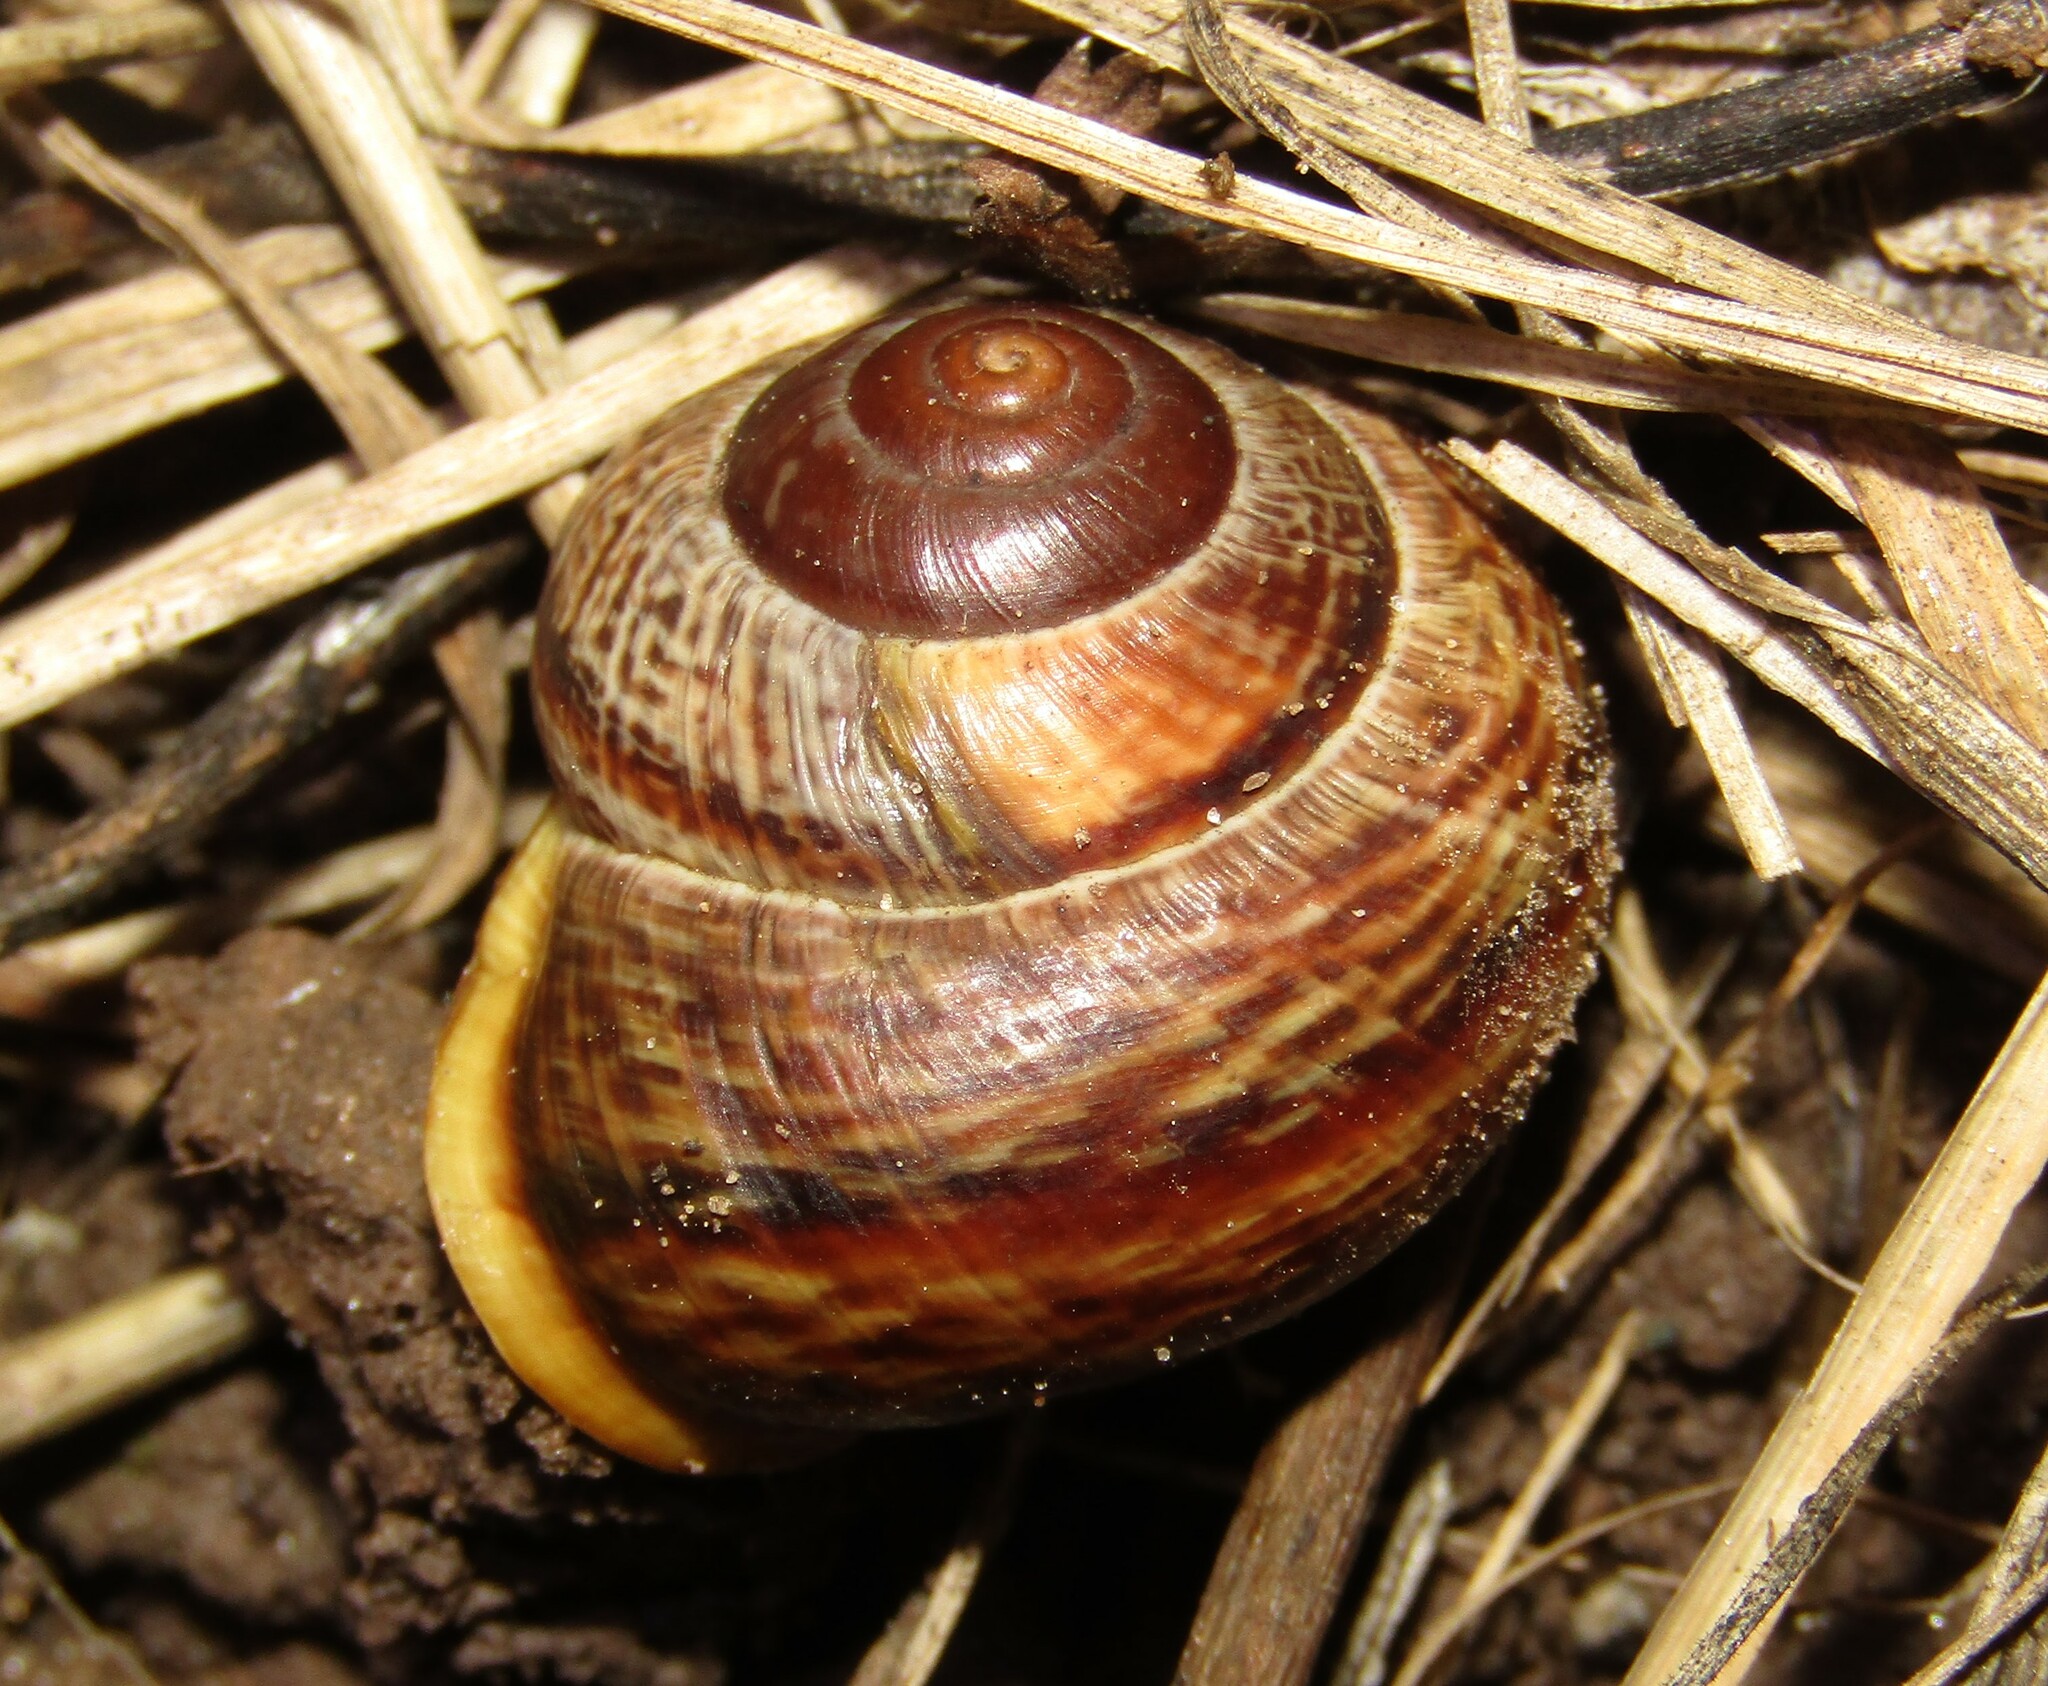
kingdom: Animalia
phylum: Mollusca
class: Gastropoda
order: Stylommatophora
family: Helicidae
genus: Arianta
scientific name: Arianta arbustorum
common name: Copse snail
